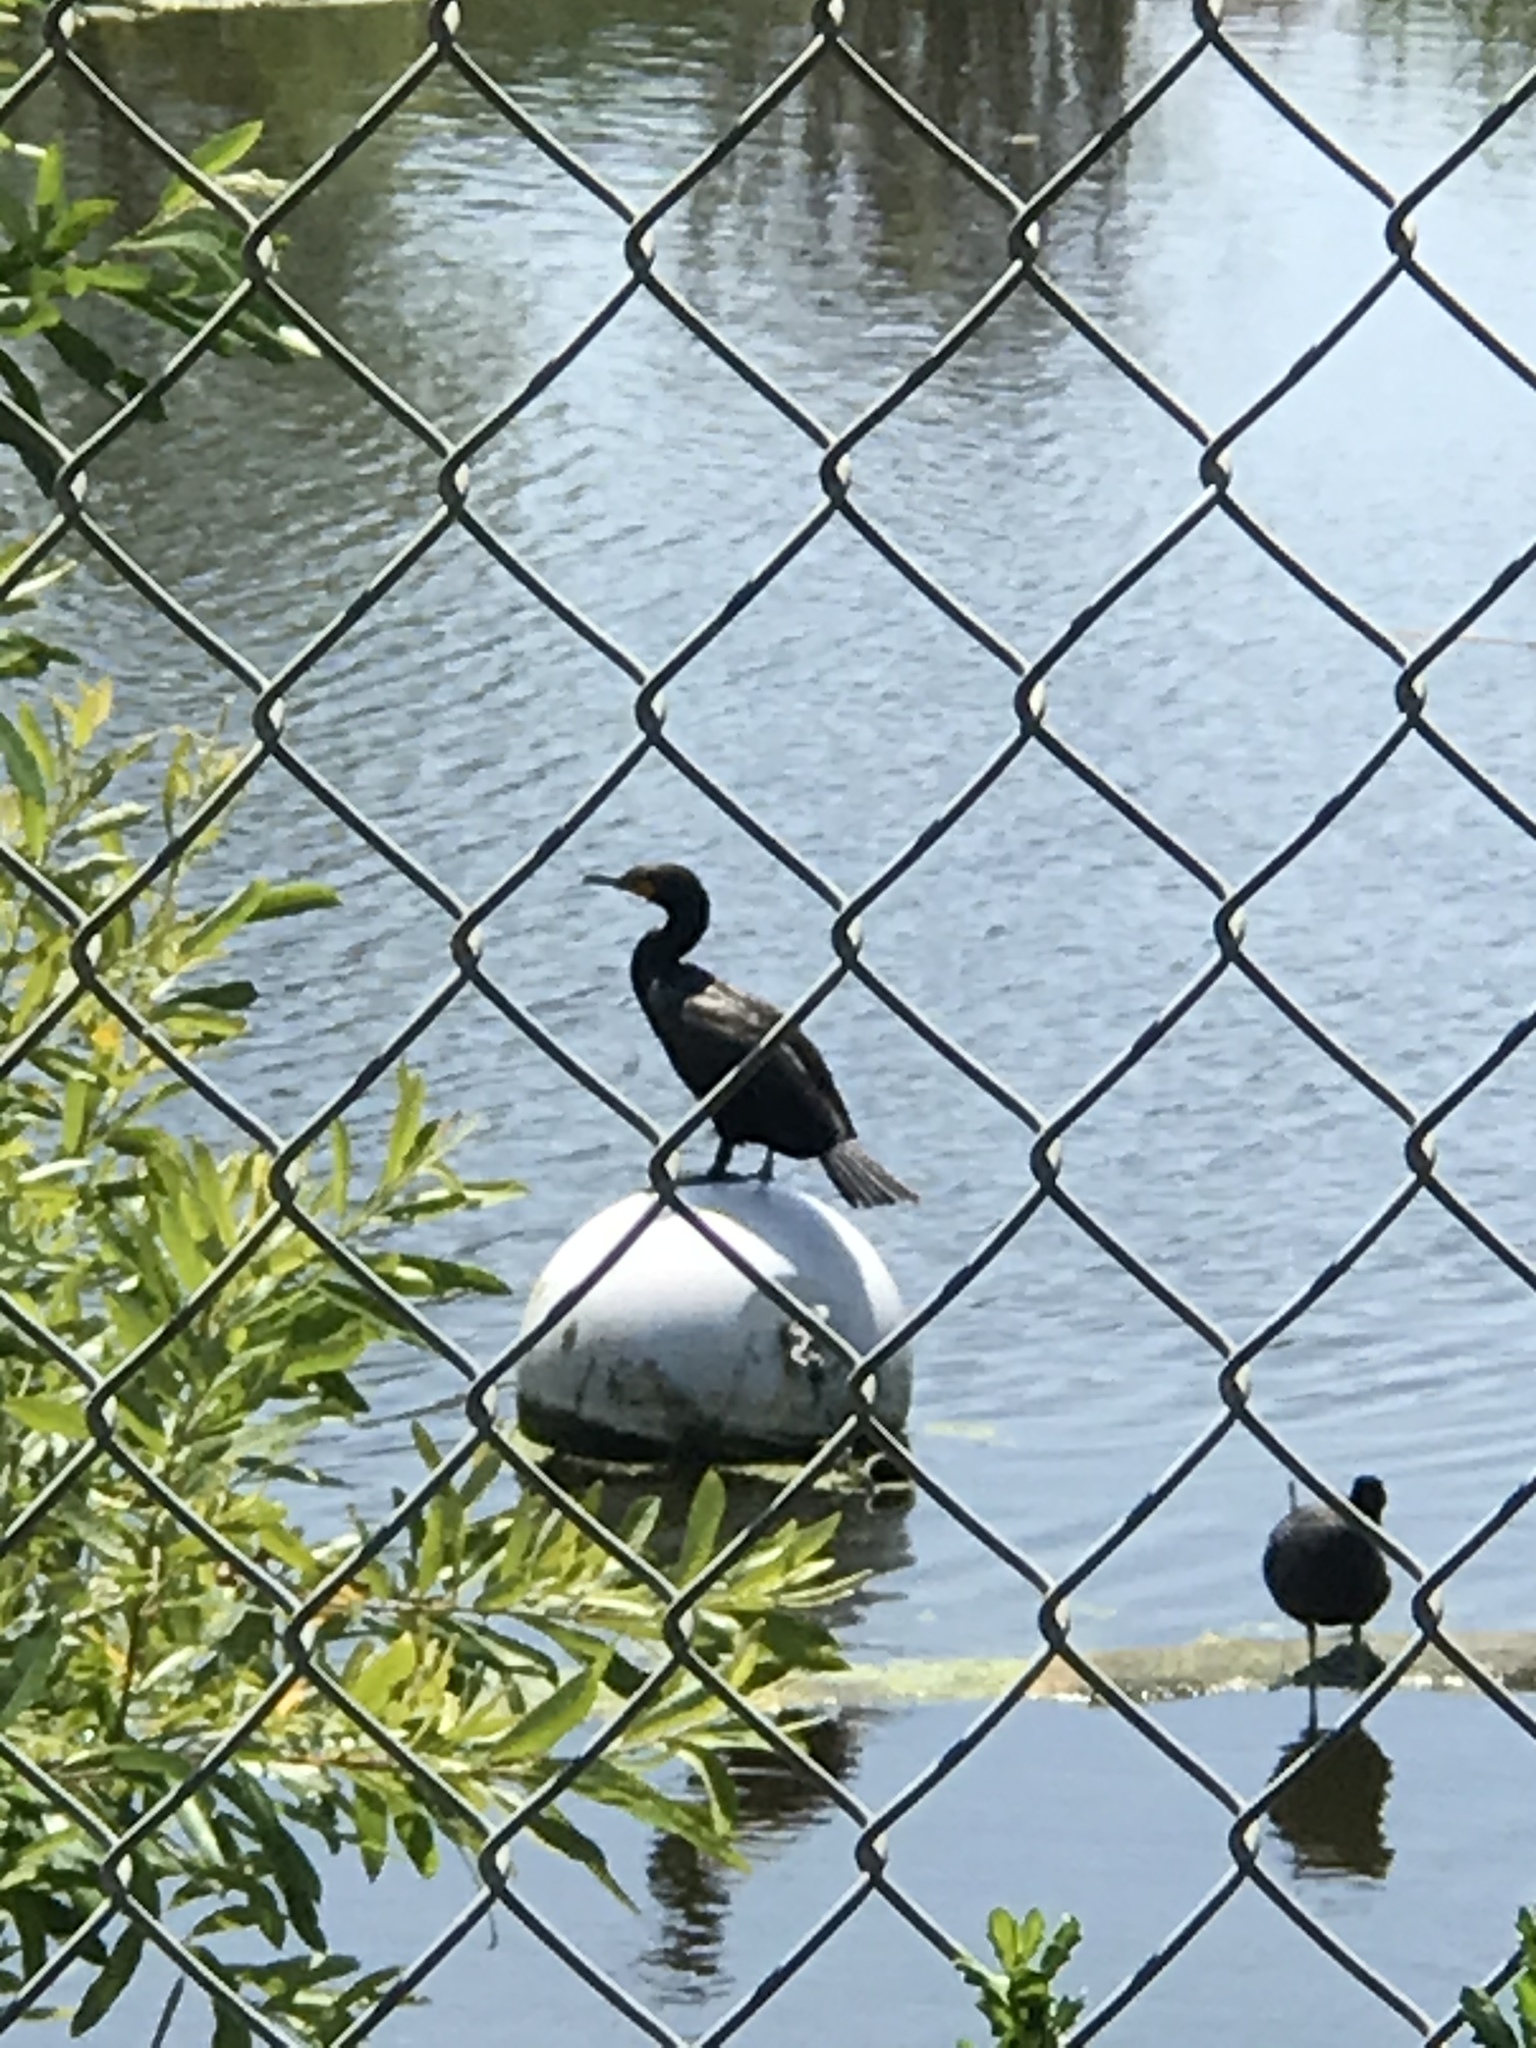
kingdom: Animalia
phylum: Chordata
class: Aves
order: Suliformes
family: Phalacrocoracidae
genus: Phalacrocorax
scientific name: Phalacrocorax auritus
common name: Double-crested cormorant
